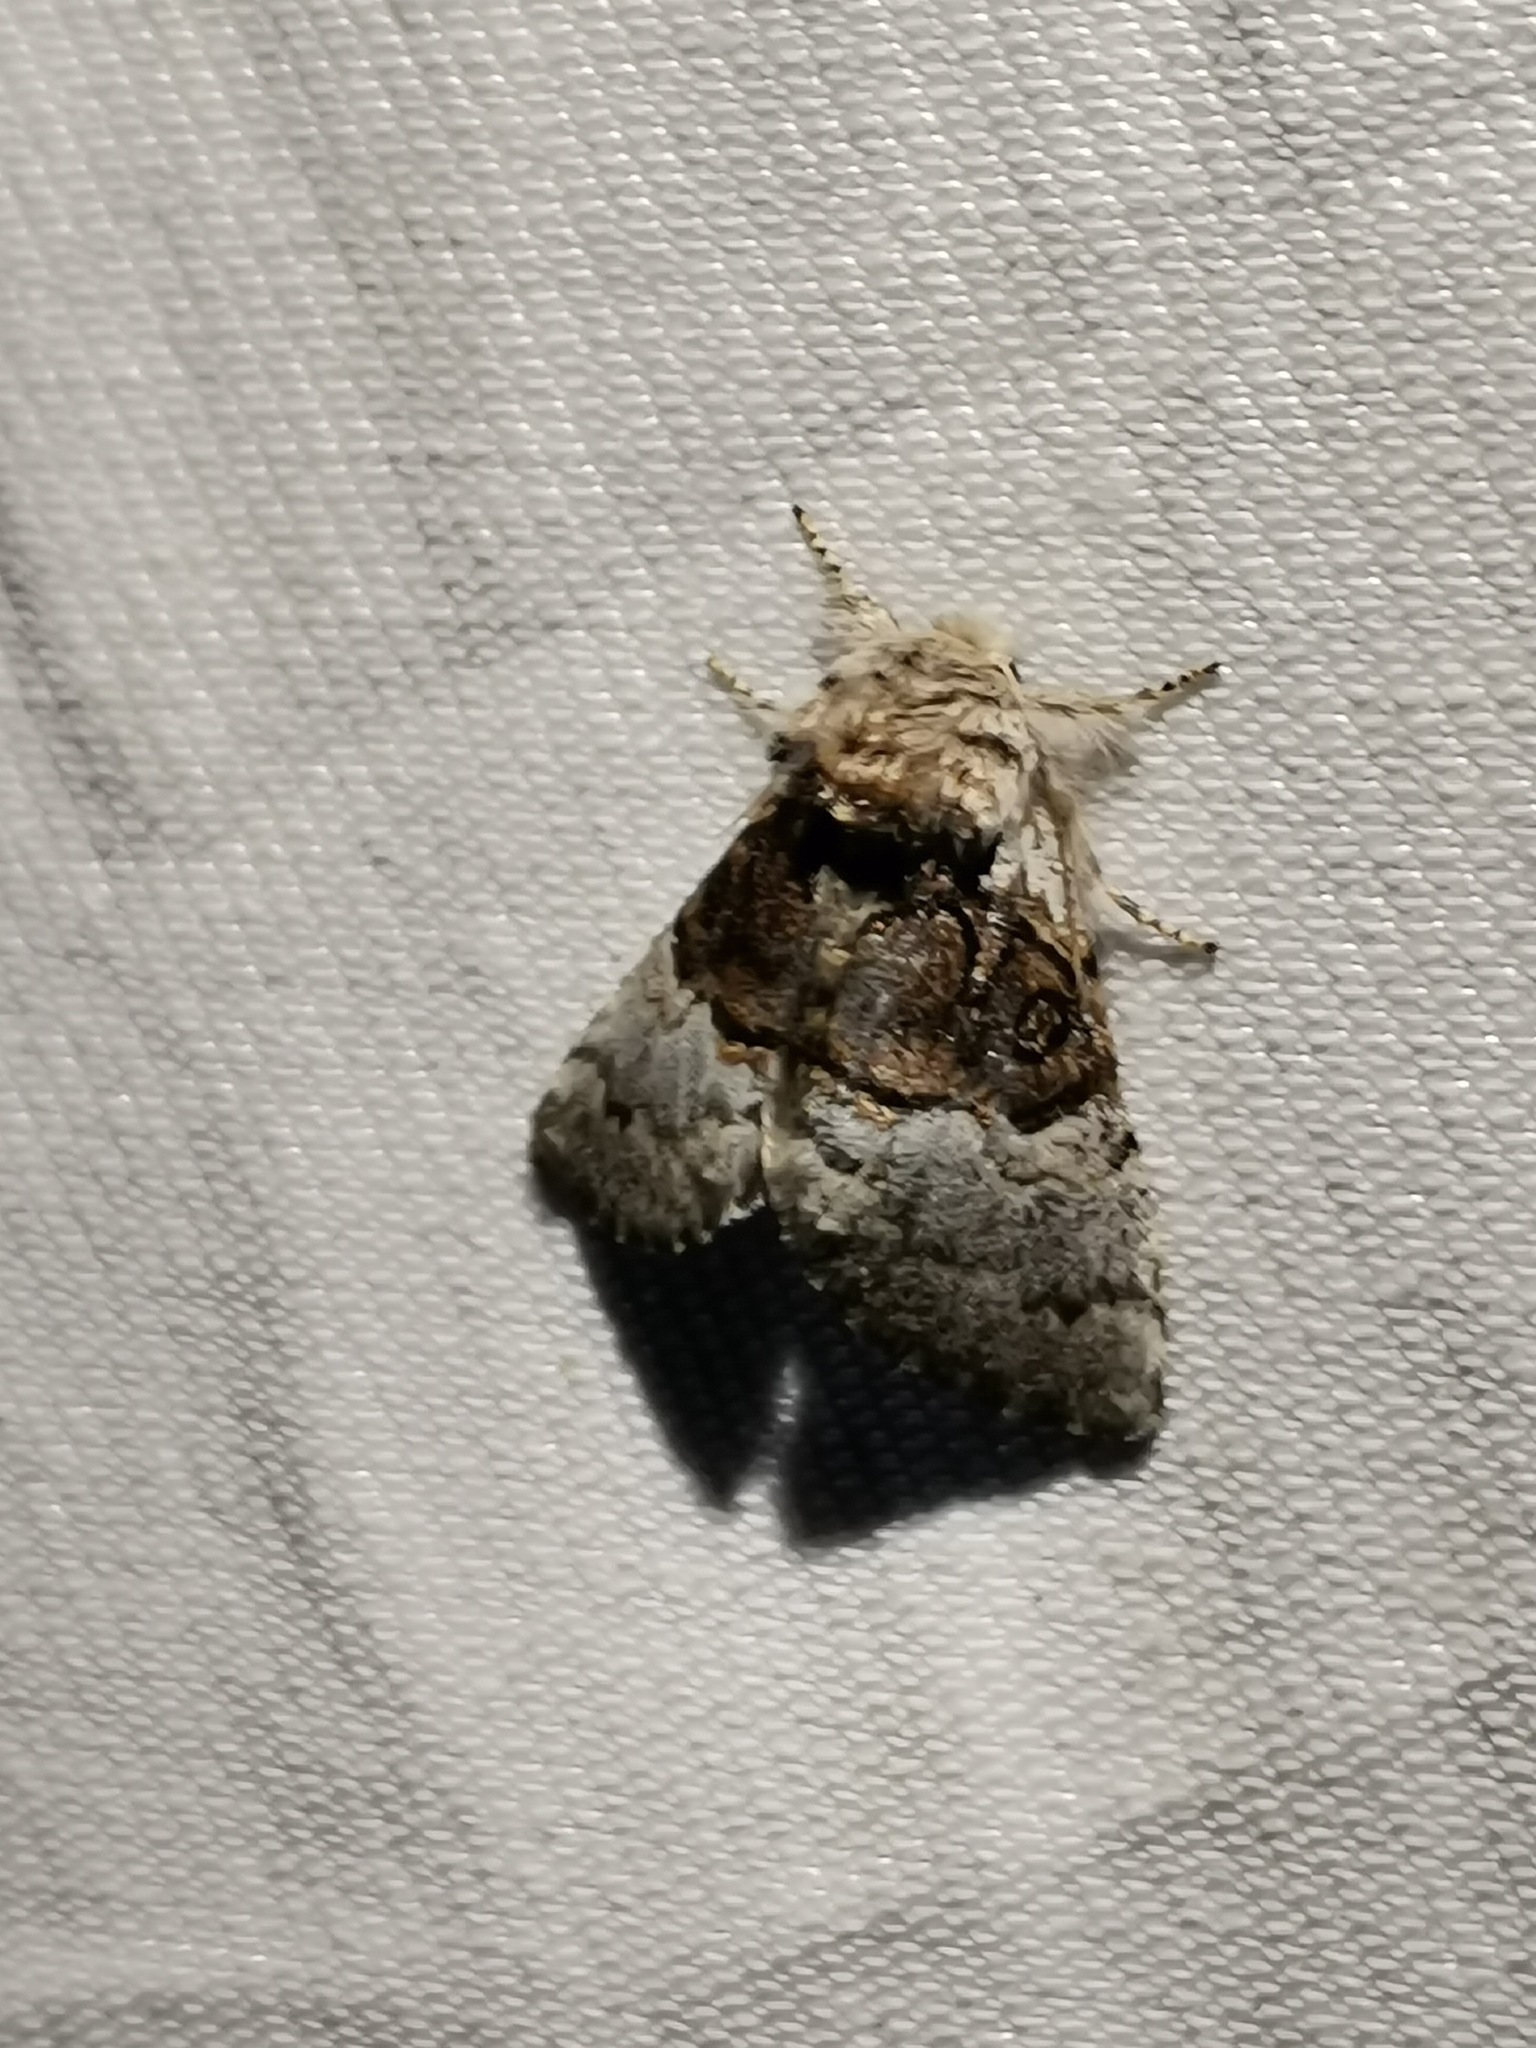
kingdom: Animalia
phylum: Arthropoda
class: Insecta
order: Lepidoptera
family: Noctuidae
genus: Colocasia
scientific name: Colocasia coryli
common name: Nut-tree tussock
